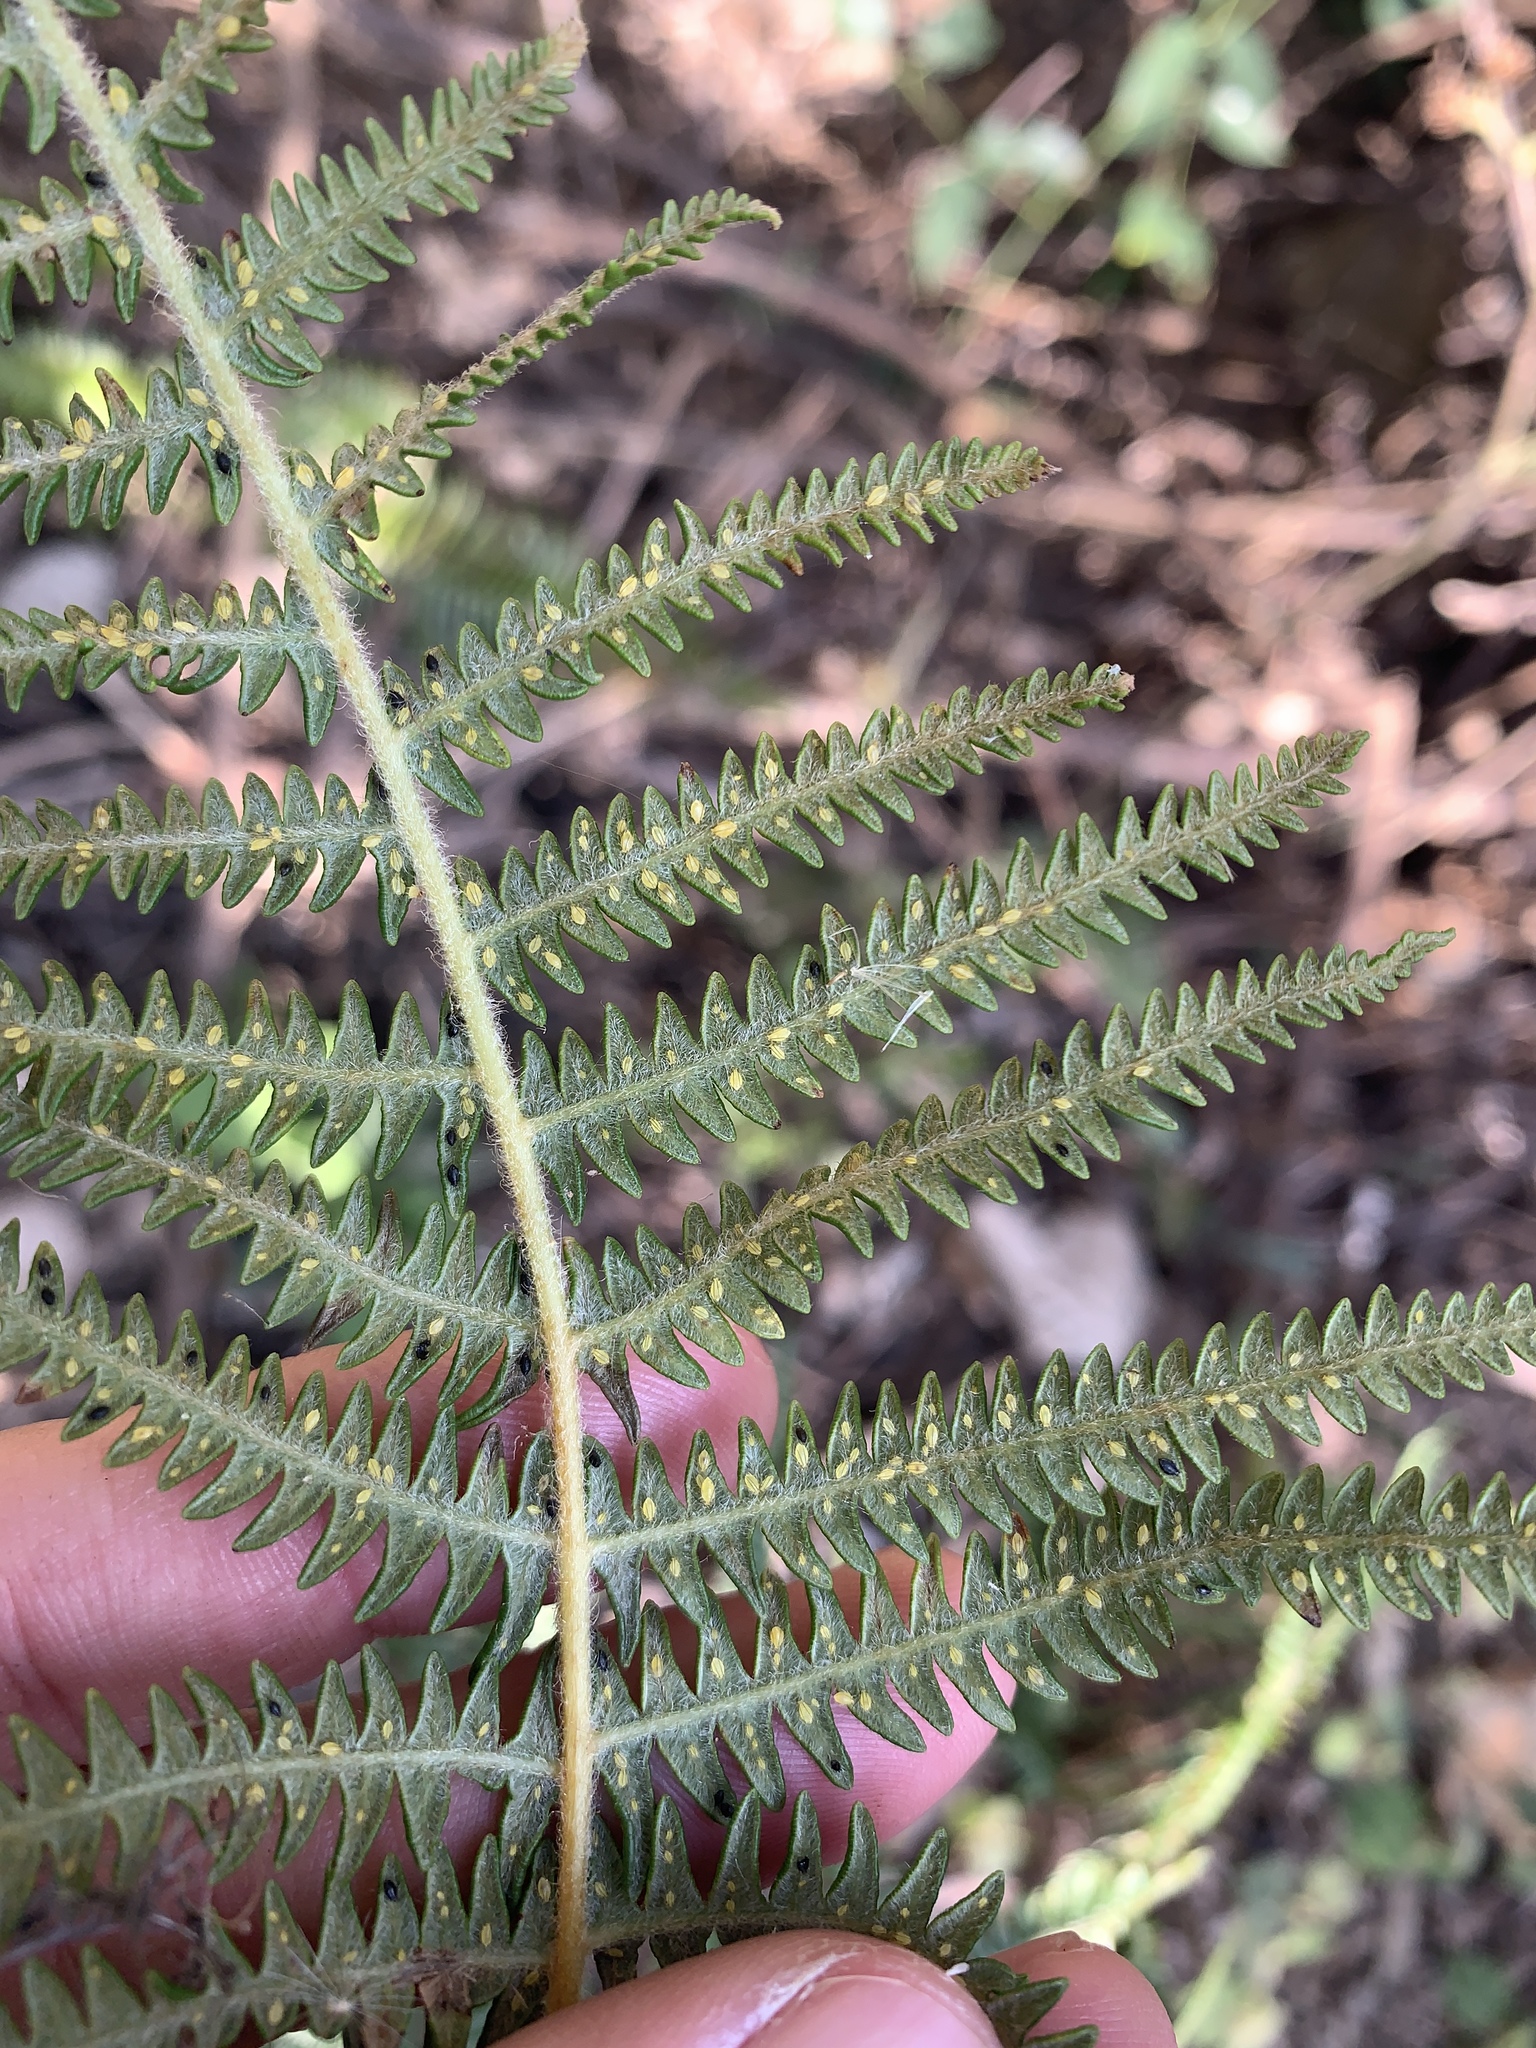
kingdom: Plantae
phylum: Tracheophyta
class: Polypodiopsida
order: Polypodiales
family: Dennstaedtiaceae
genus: Pteridium
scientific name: Pteridium aquilinum
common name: Bracken
